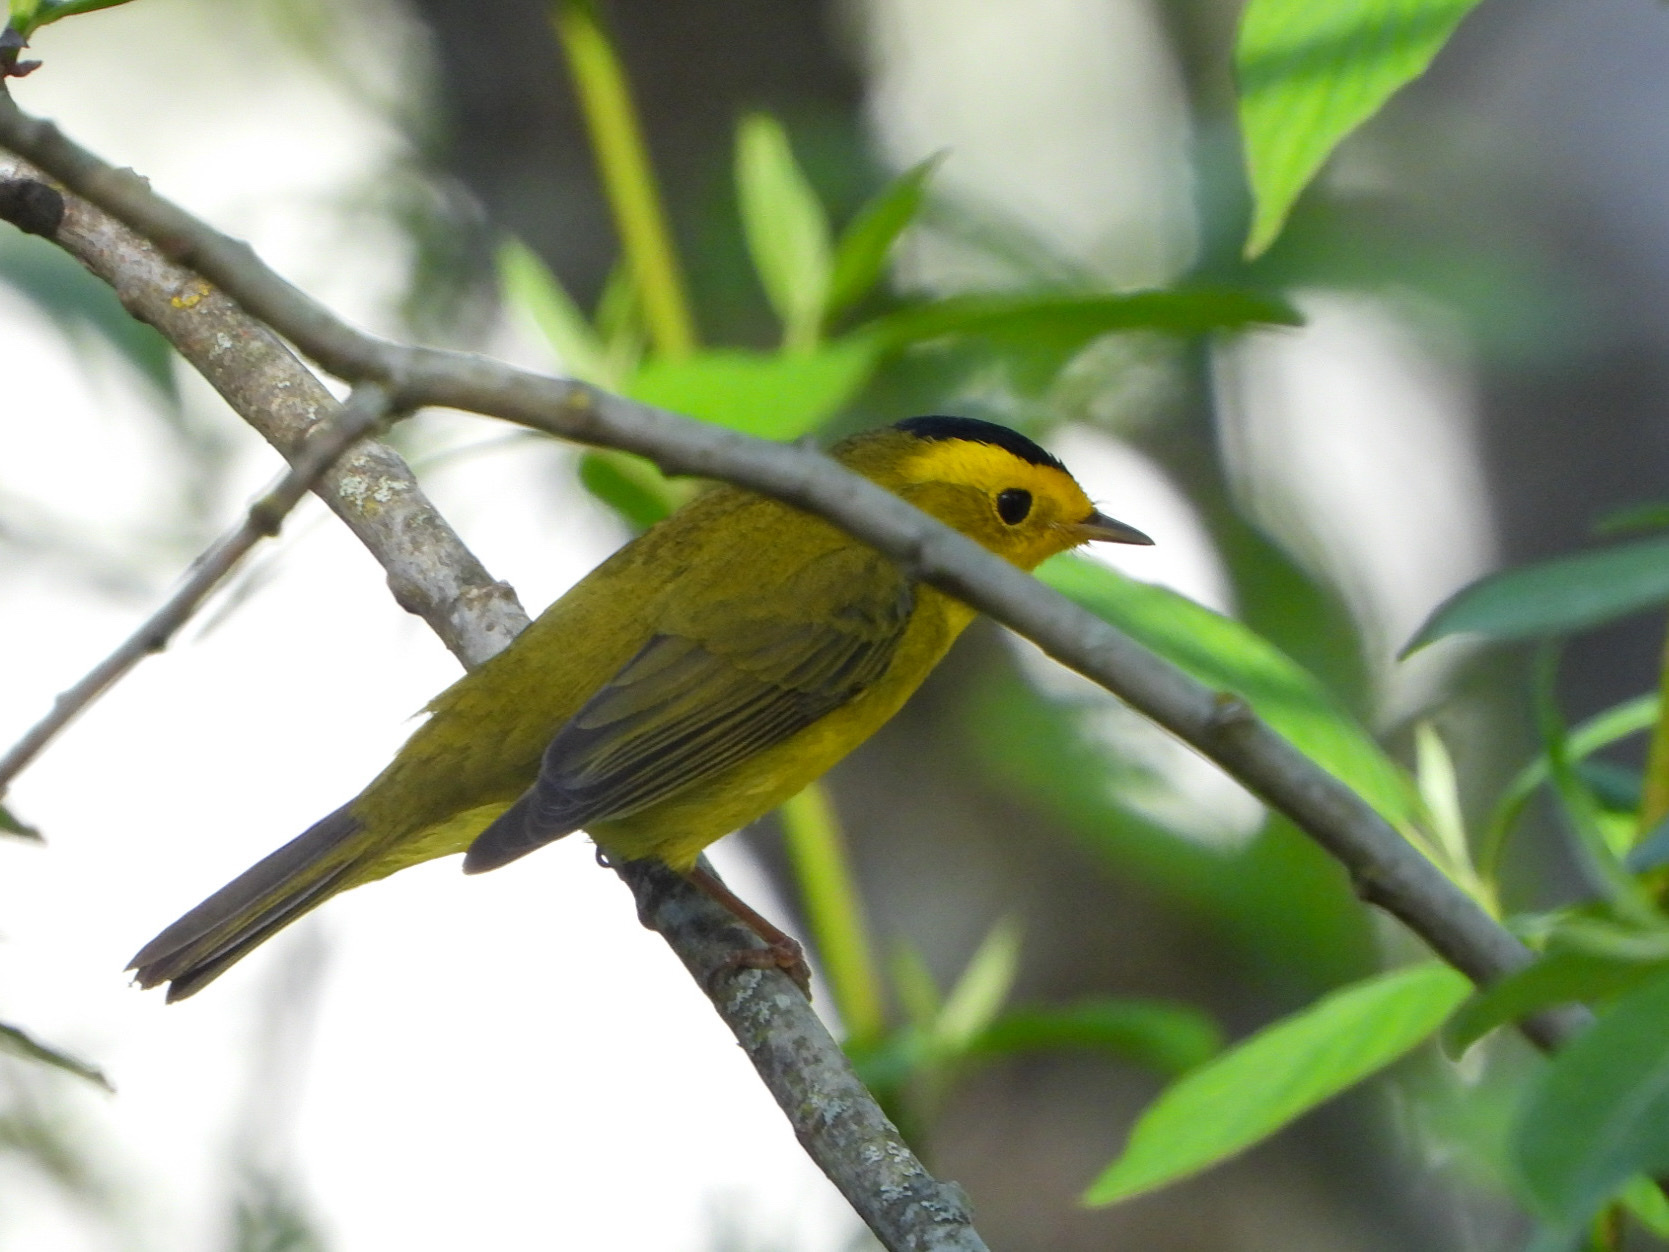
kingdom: Animalia
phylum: Chordata
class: Aves
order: Passeriformes
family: Parulidae
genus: Cardellina
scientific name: Cardellina pusilla
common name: Wilson's warbler
